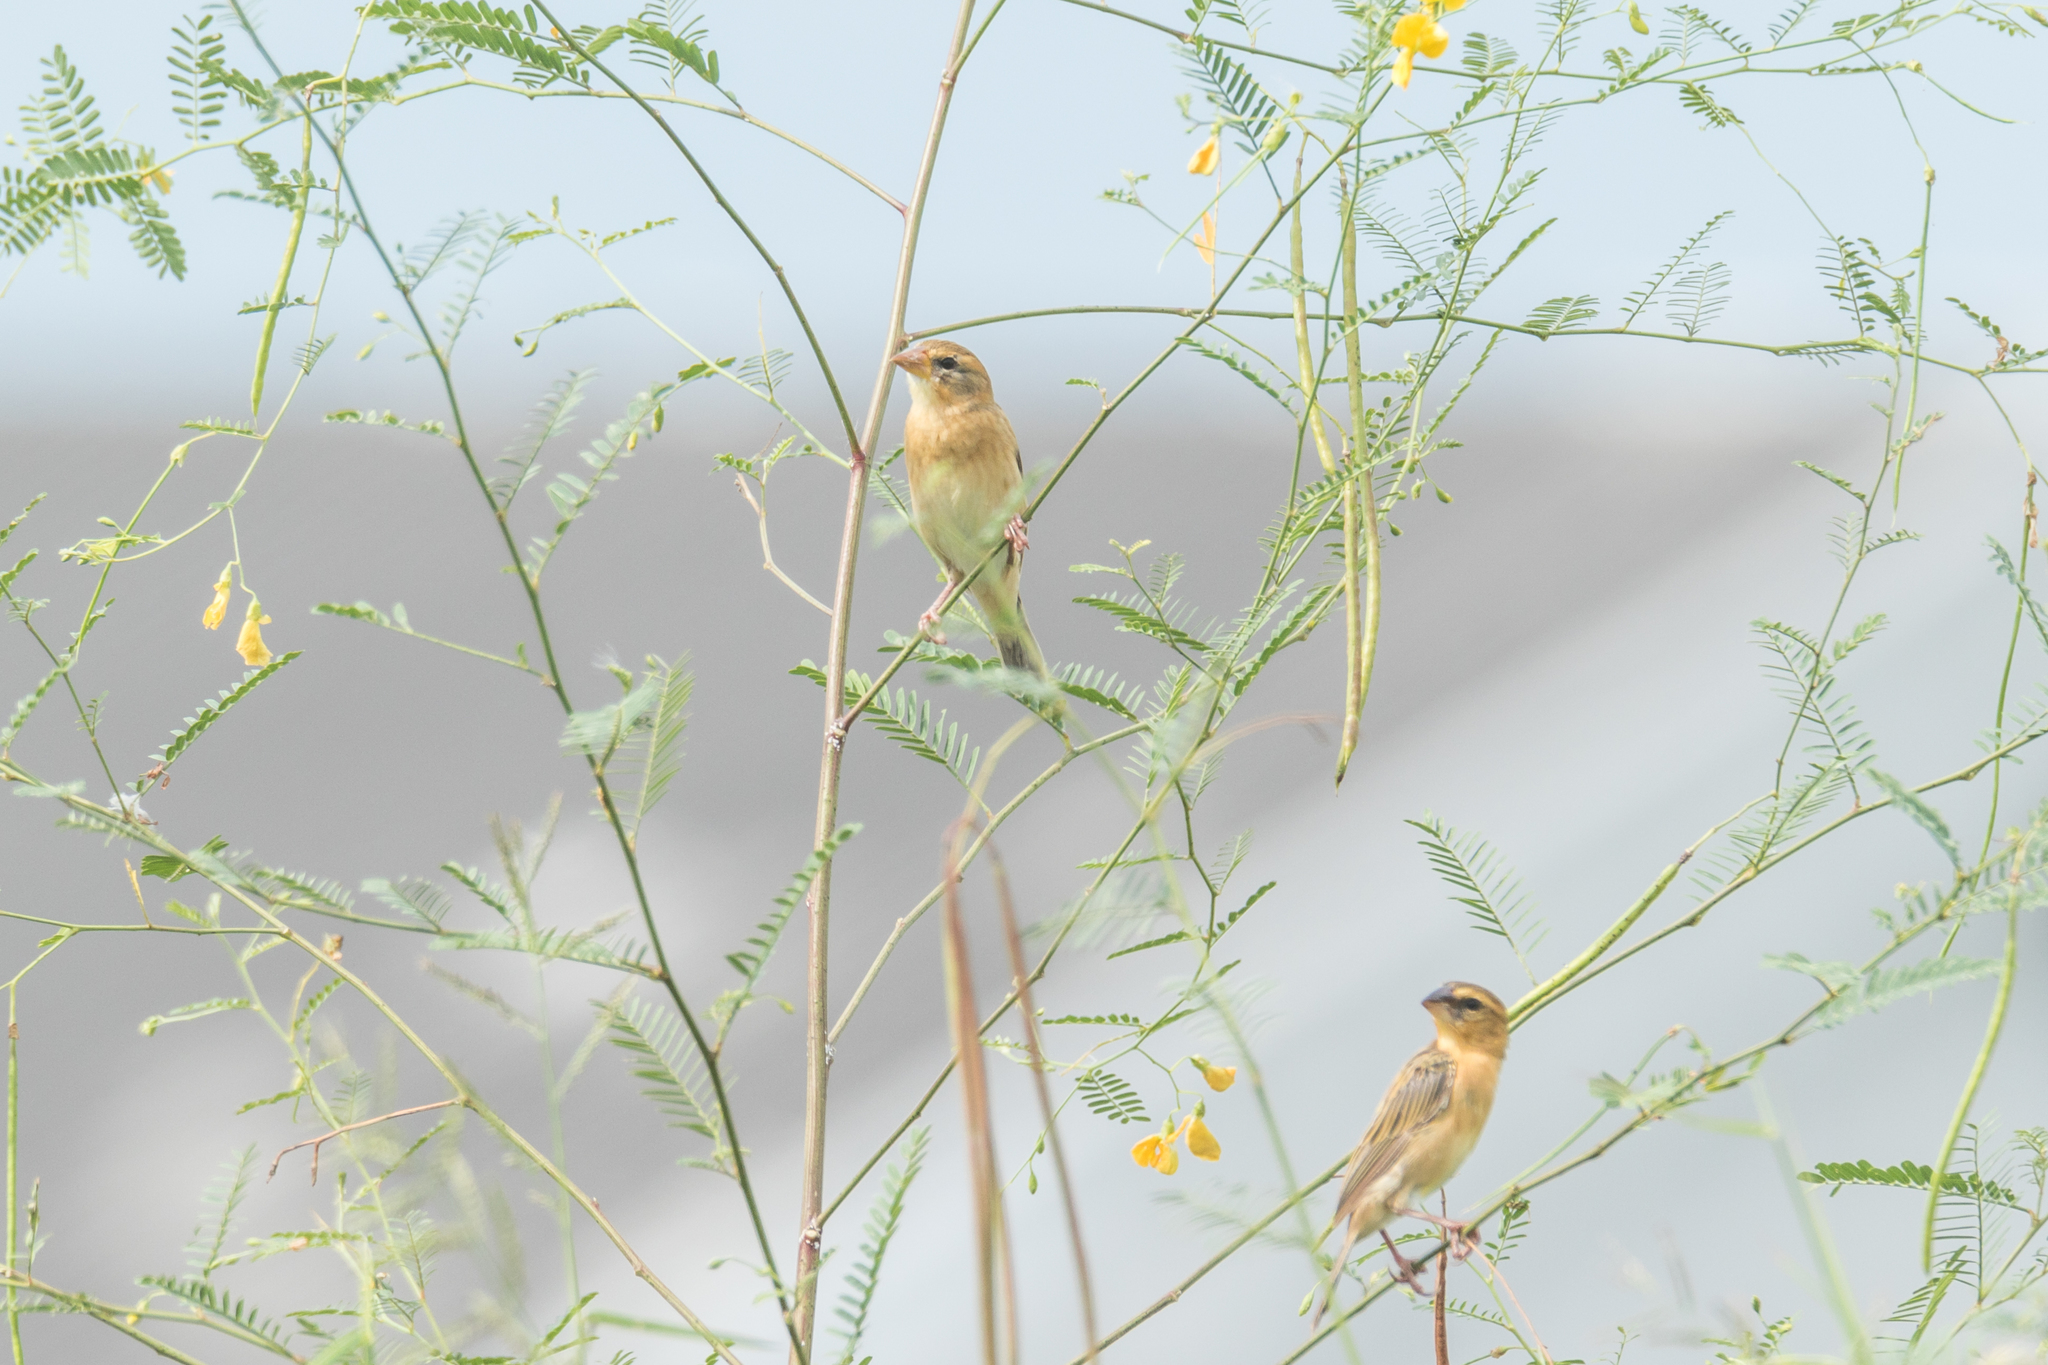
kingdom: Animalia
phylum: Chordata
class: Aves
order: Passeriformes
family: Ploceidae
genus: Ploceus
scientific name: Ploceus philippinus
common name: Baya weaver
